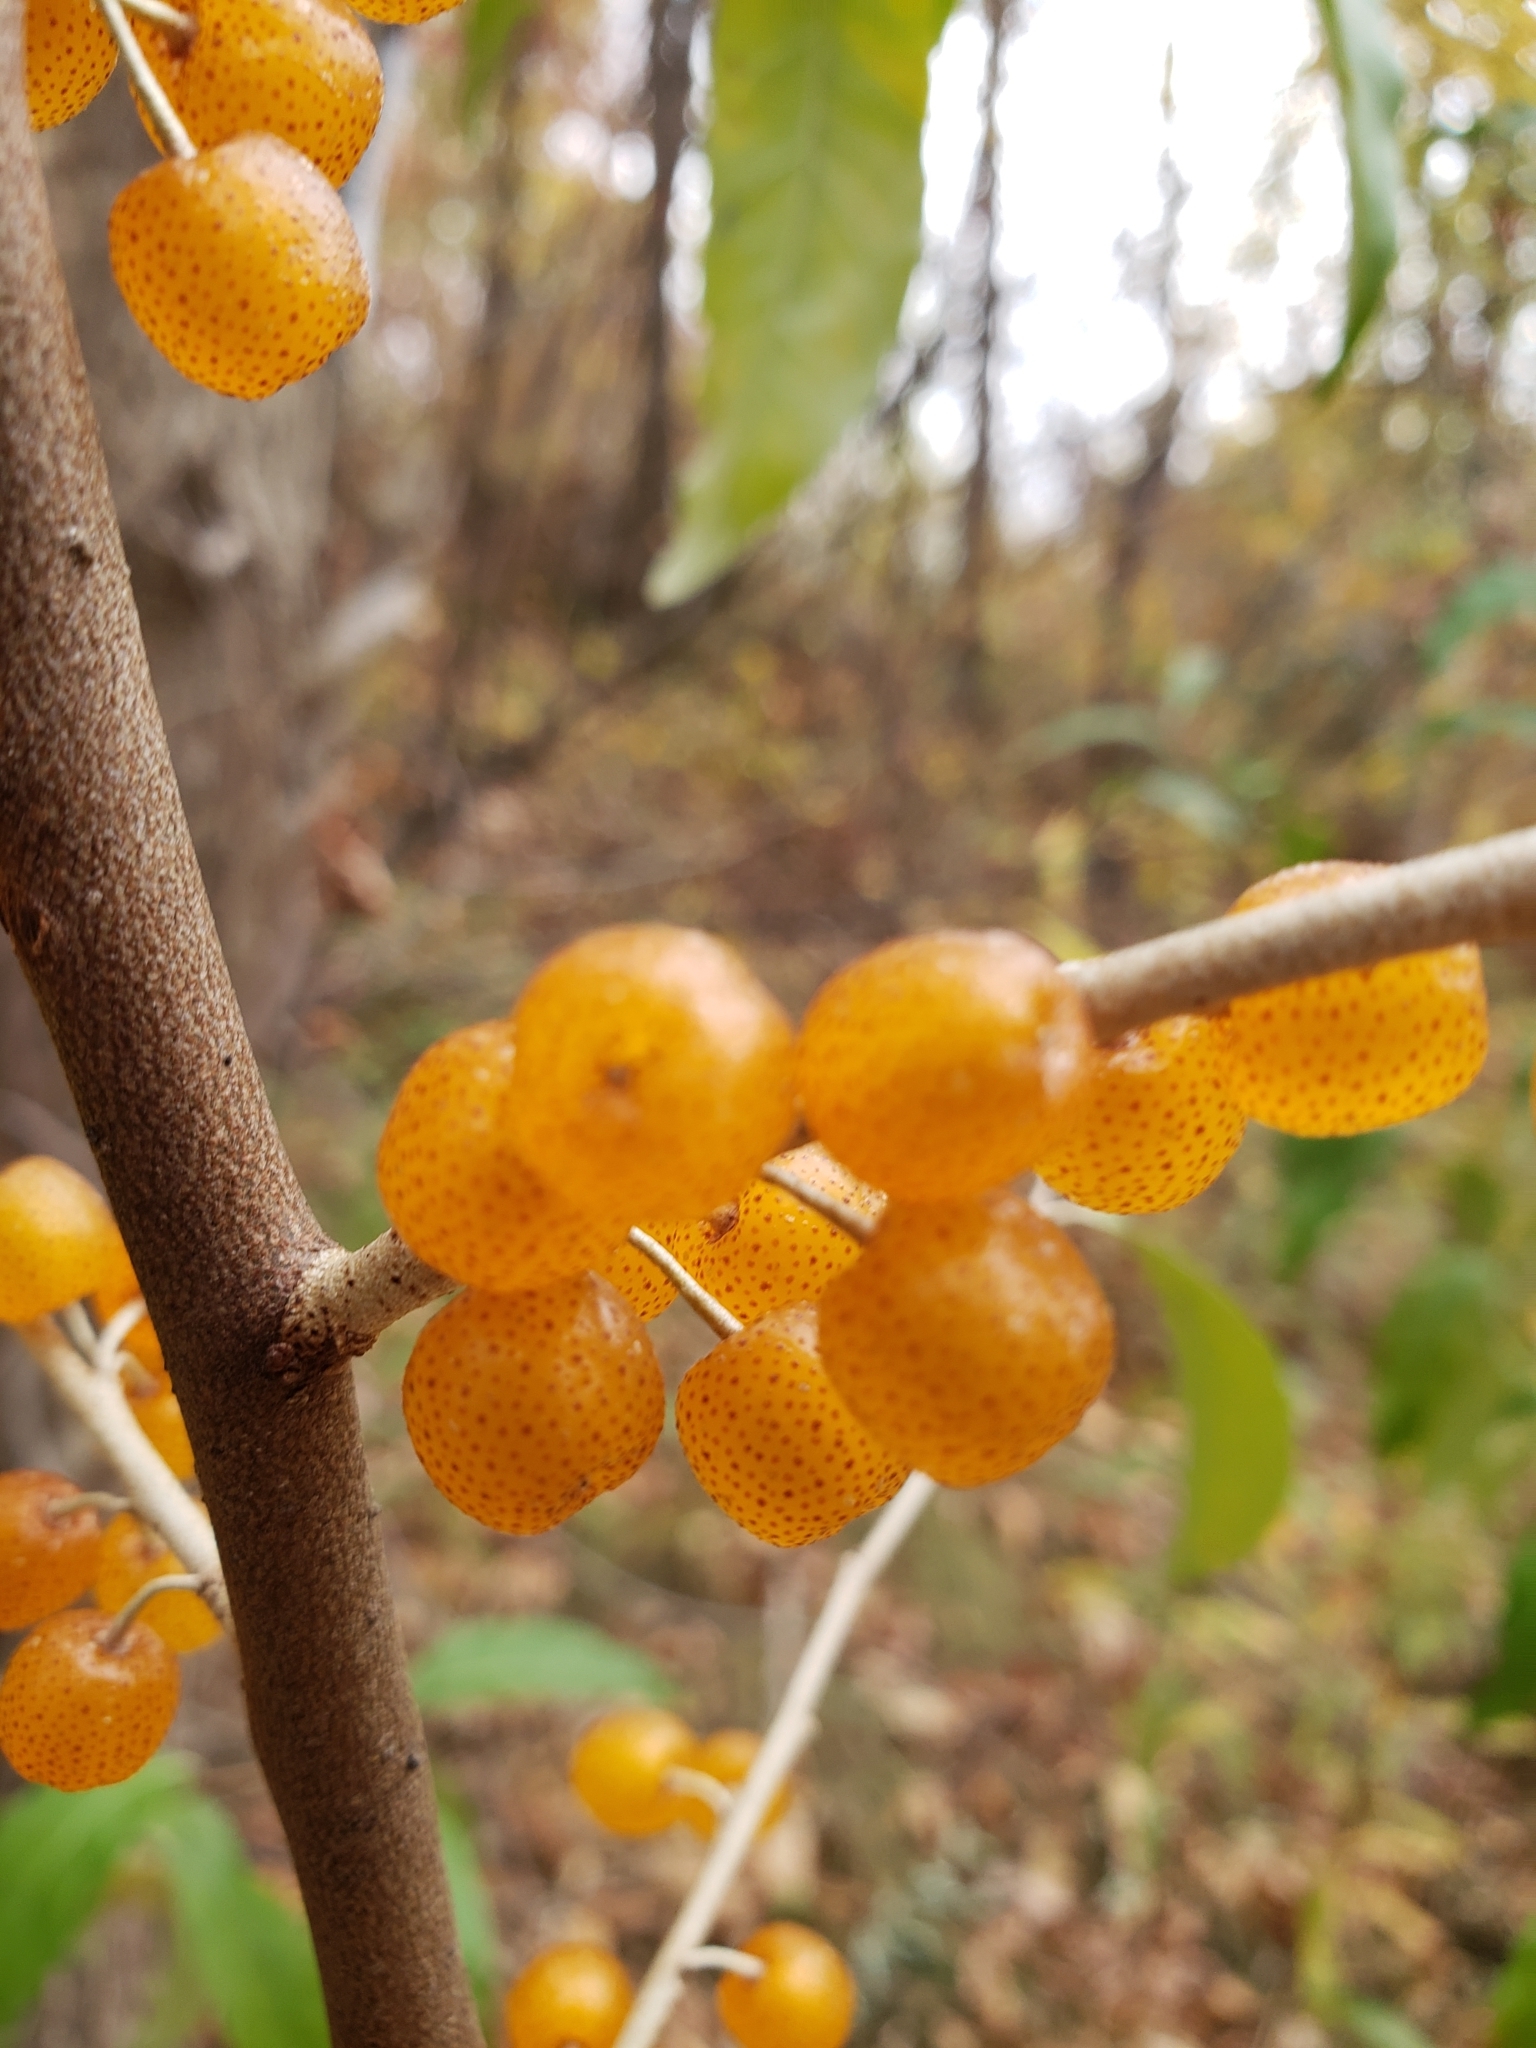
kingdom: Plantae
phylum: Tracheophyta
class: Magnoliopsida
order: Rosales
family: Elaeagnaceae
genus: Elaeagnus
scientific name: Elaeagnus umbellata
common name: Autumn olive
